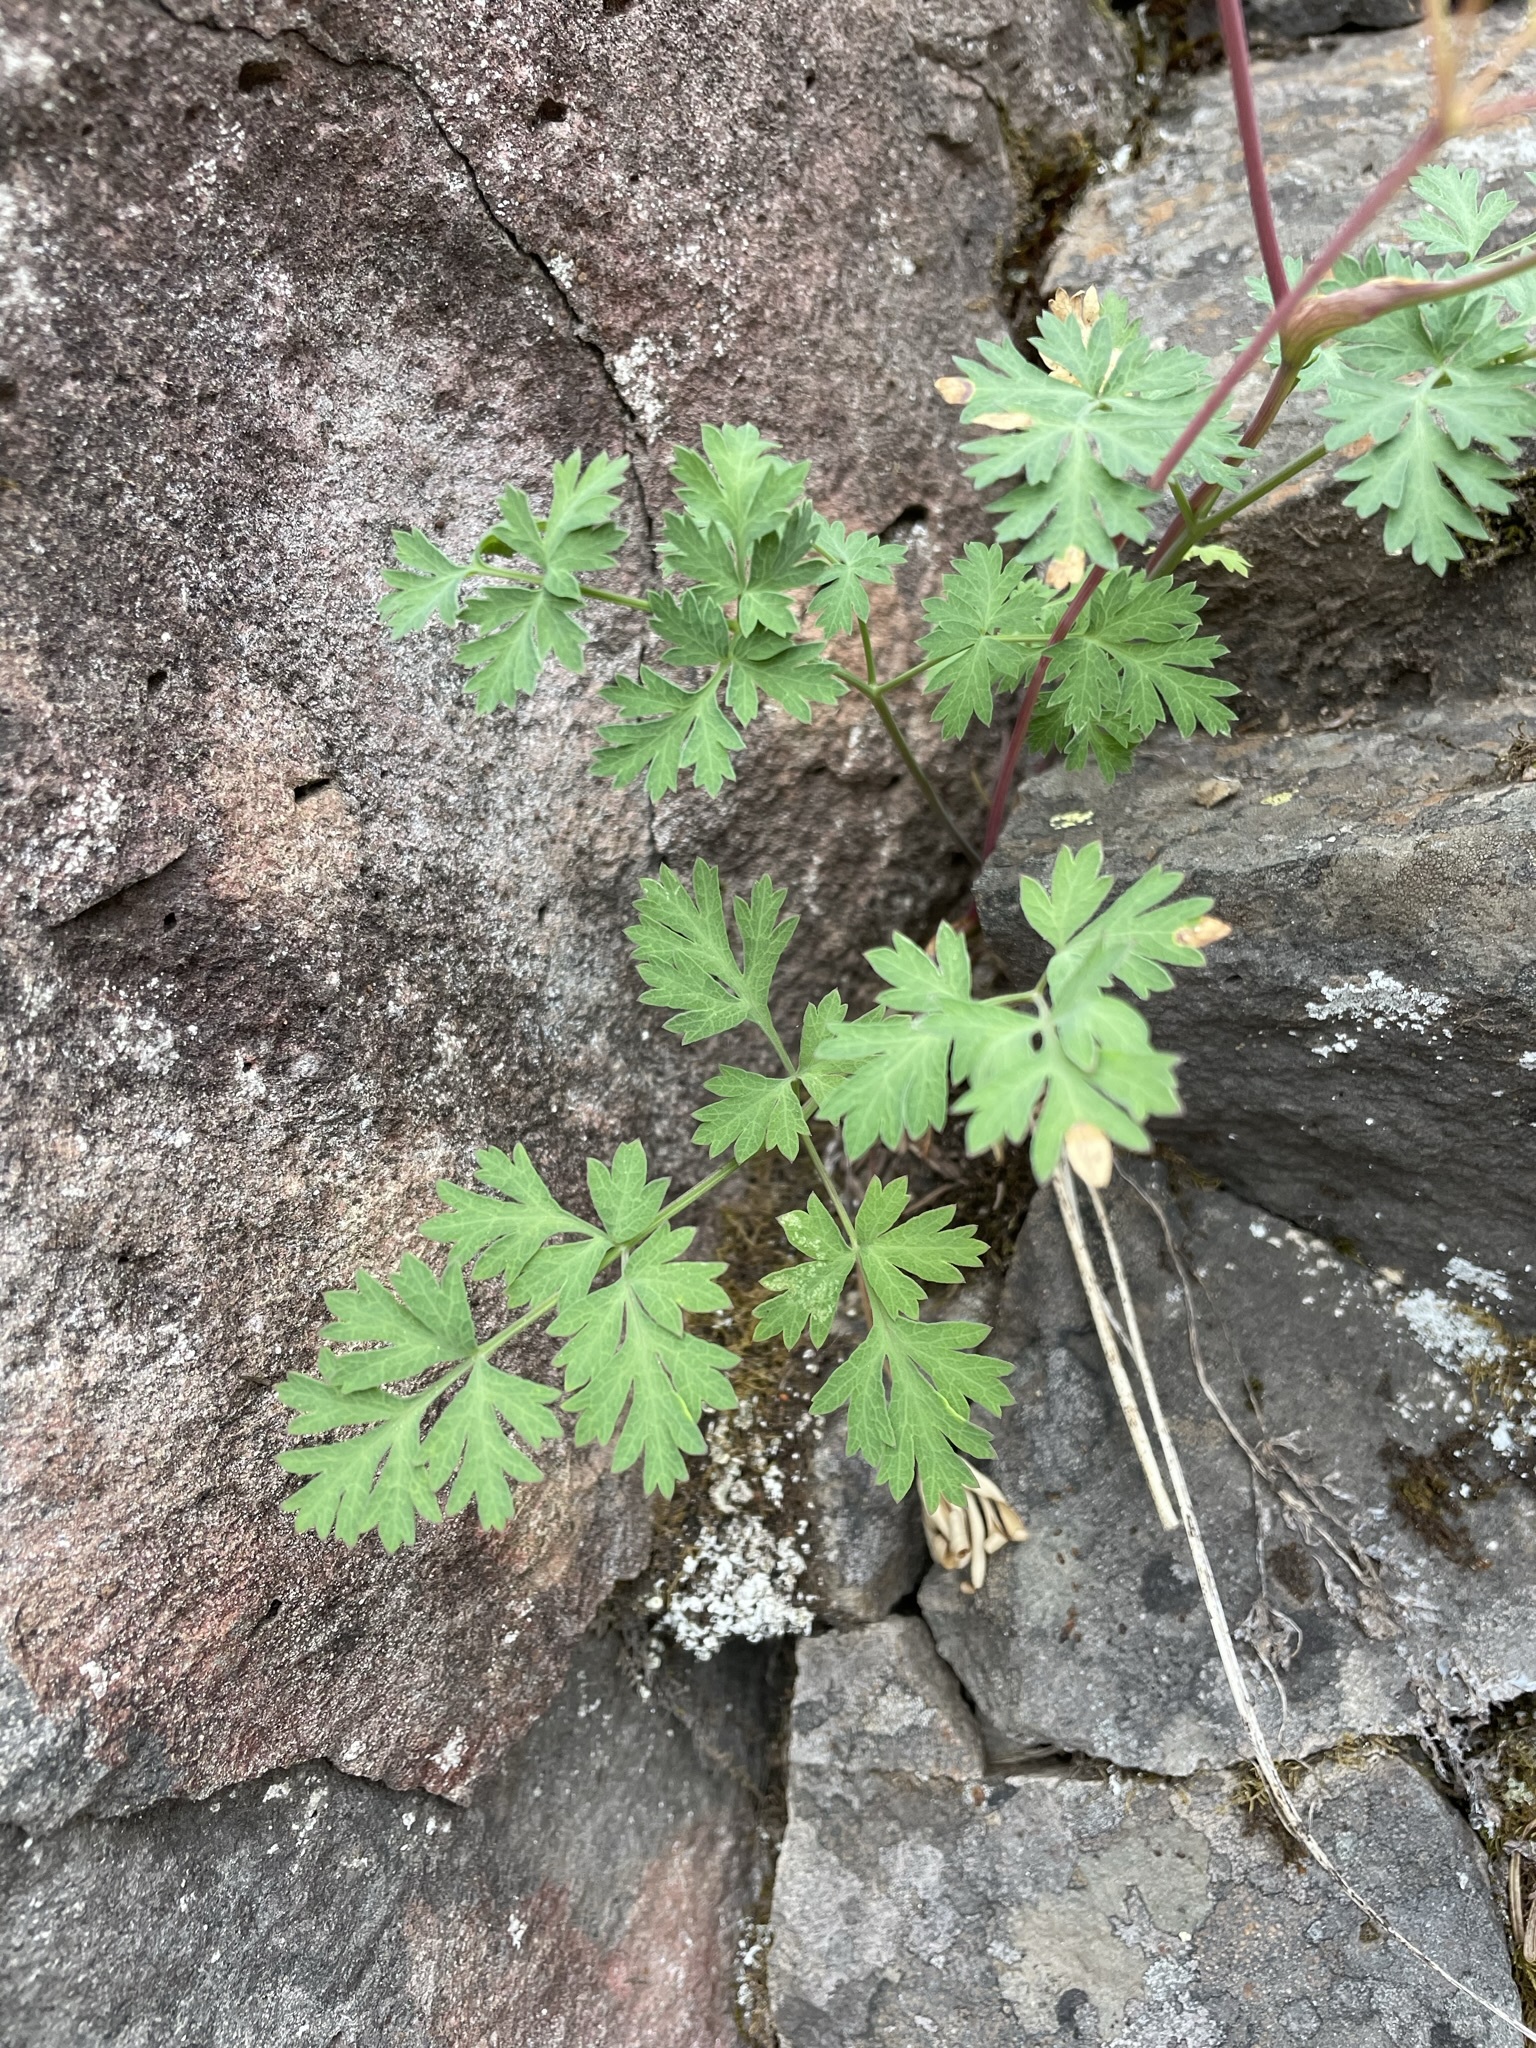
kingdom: Plantae
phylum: Tracheophyta
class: Magnoliopsida
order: Apiales
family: Apiaceae
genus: Lomatium
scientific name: Lomatium martindalei
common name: Cascade desert-parsley
